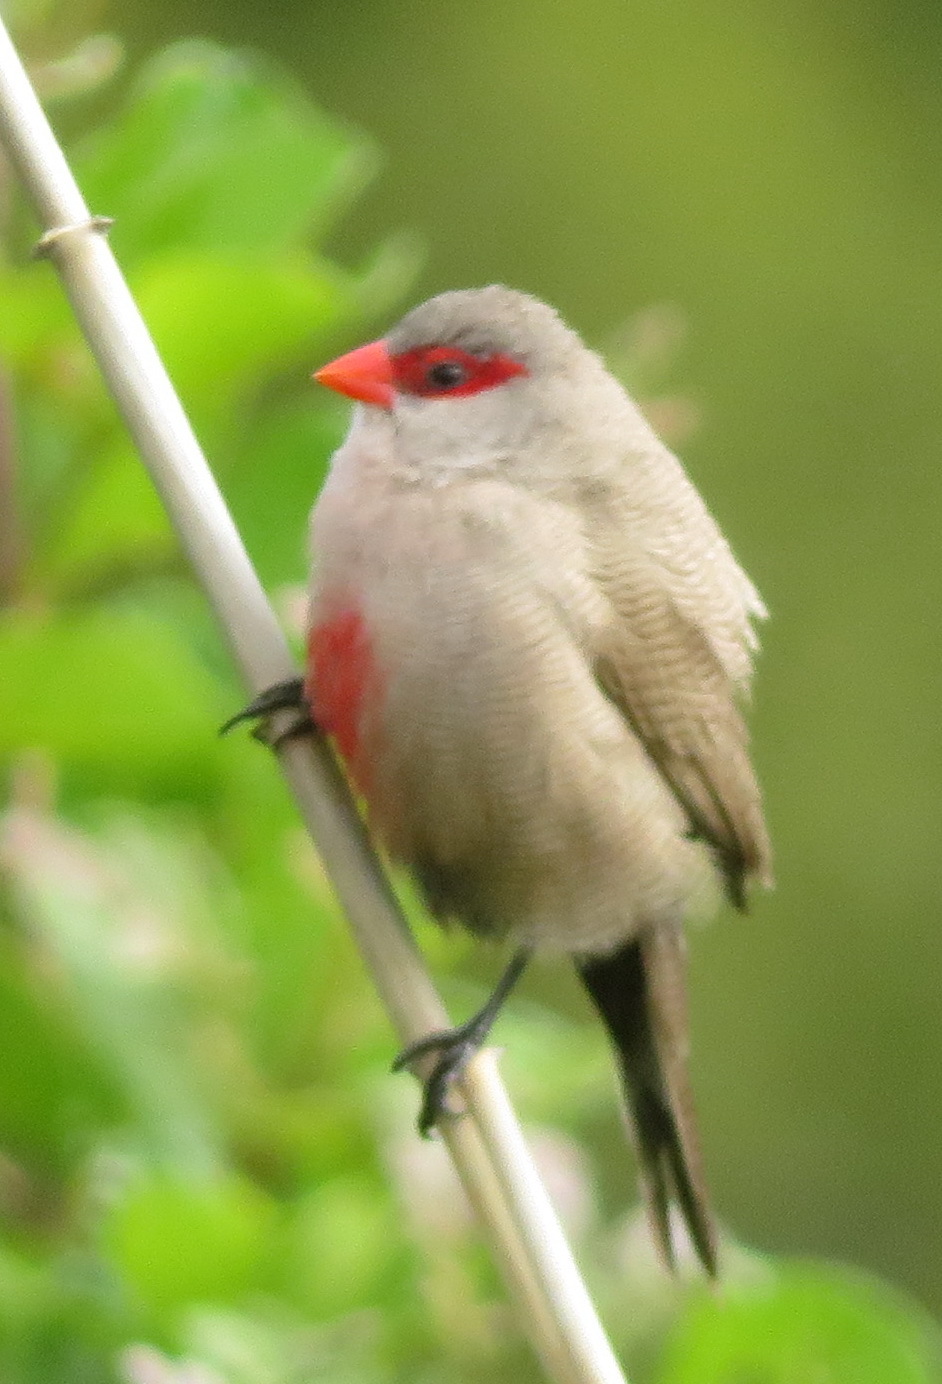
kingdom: Animalia
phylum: Chordata
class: Aves
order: Passeriformes
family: Estrildidae
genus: Estrilda
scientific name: Estrilda astrild
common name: Common waxbill
